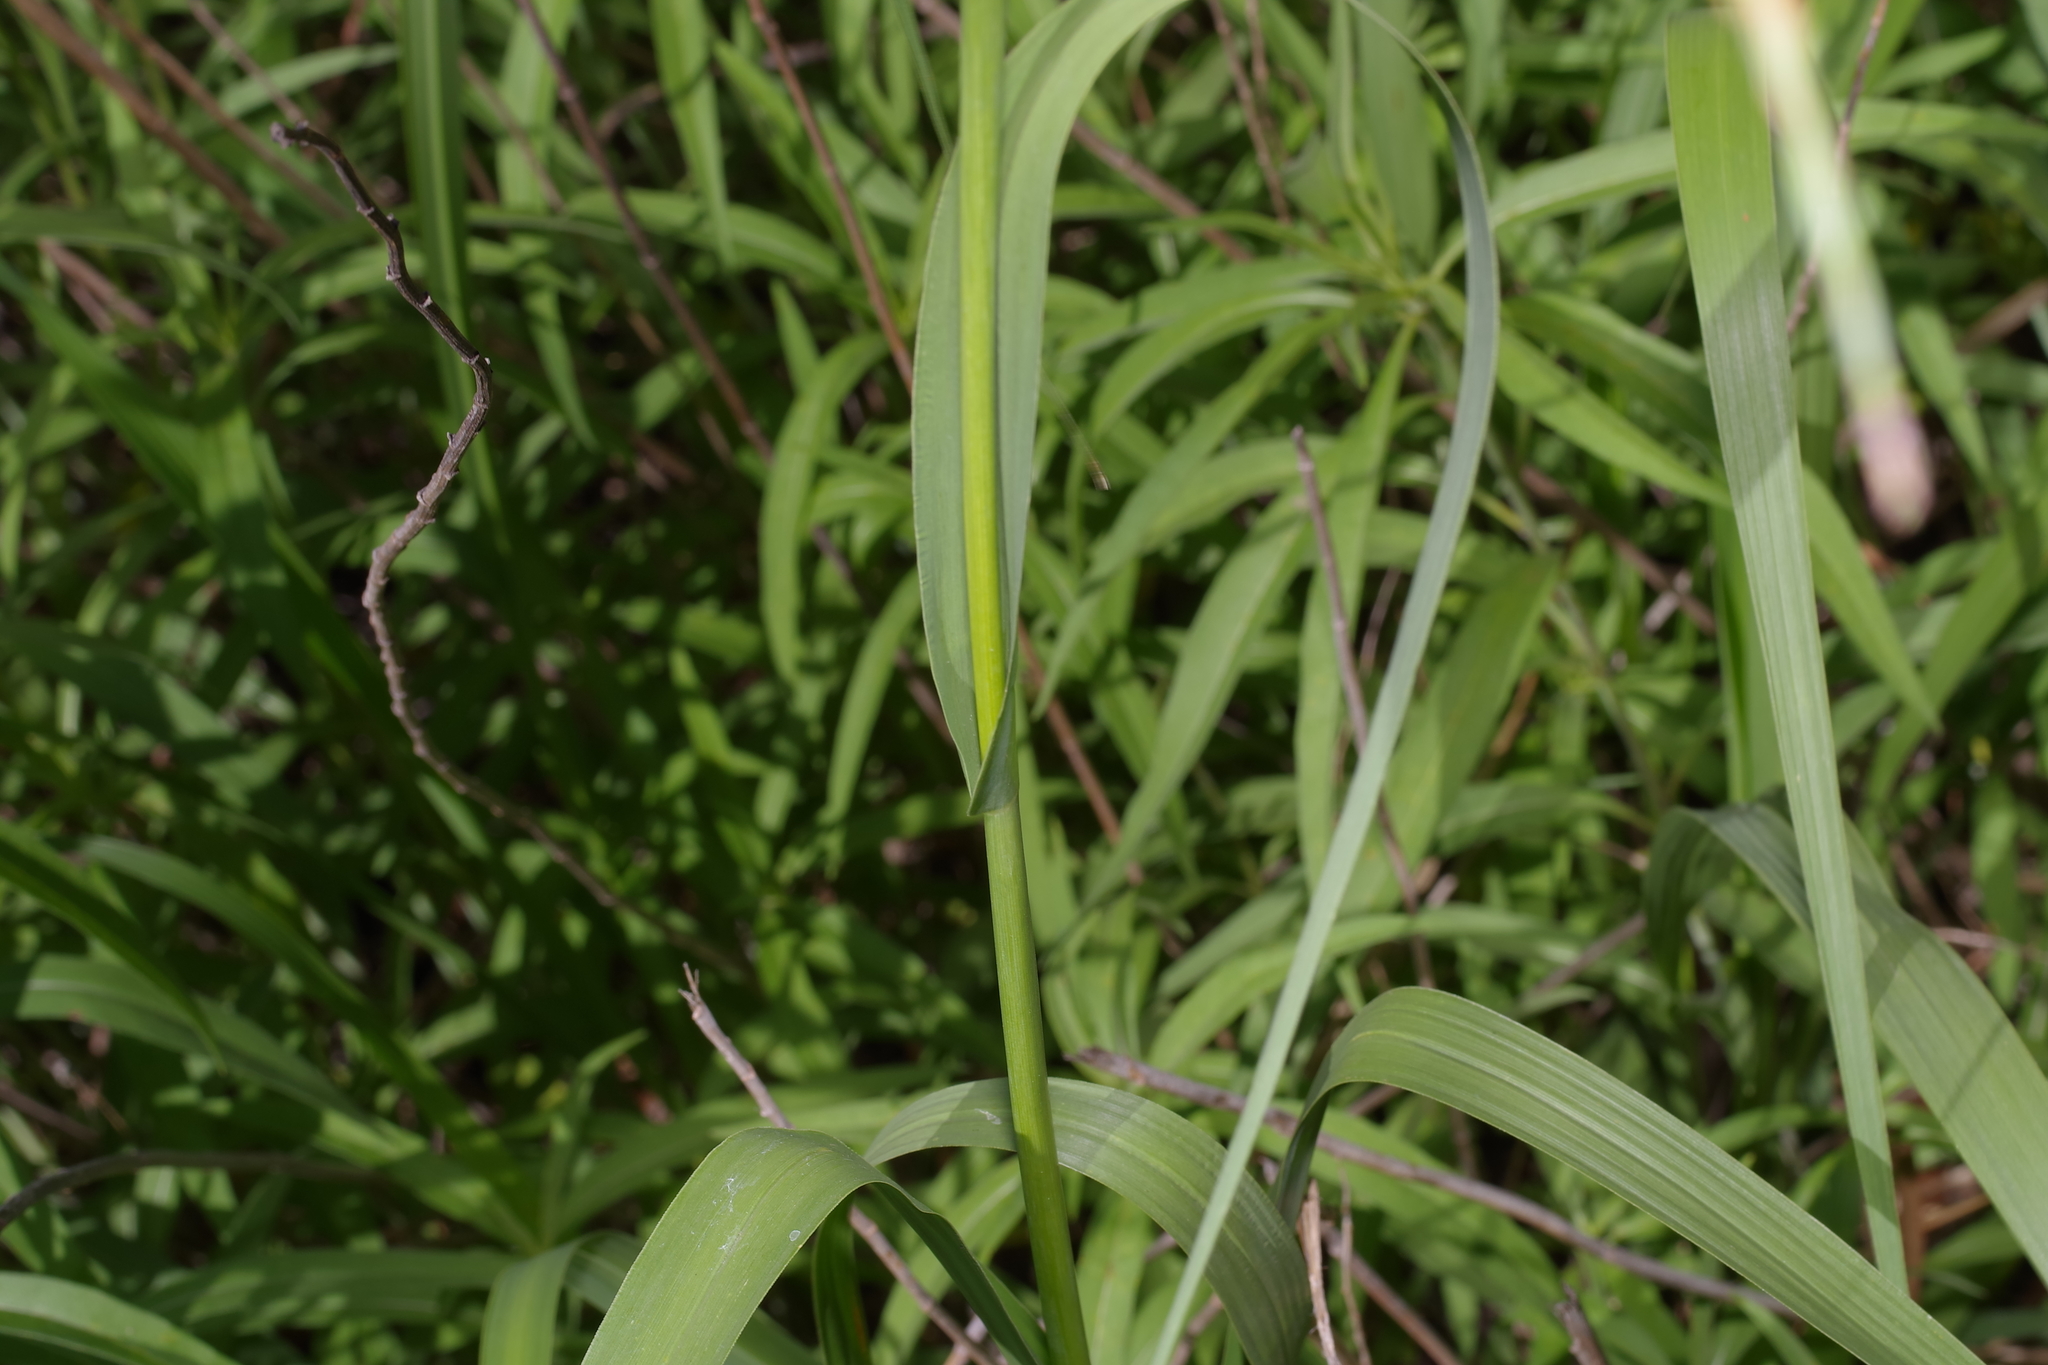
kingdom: Plantae
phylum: Tracheophyta
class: Liliopsida
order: Poales
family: Poaceae
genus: Tripsacum
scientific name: Tripsacum dactyloides
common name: Buffalo-grass
